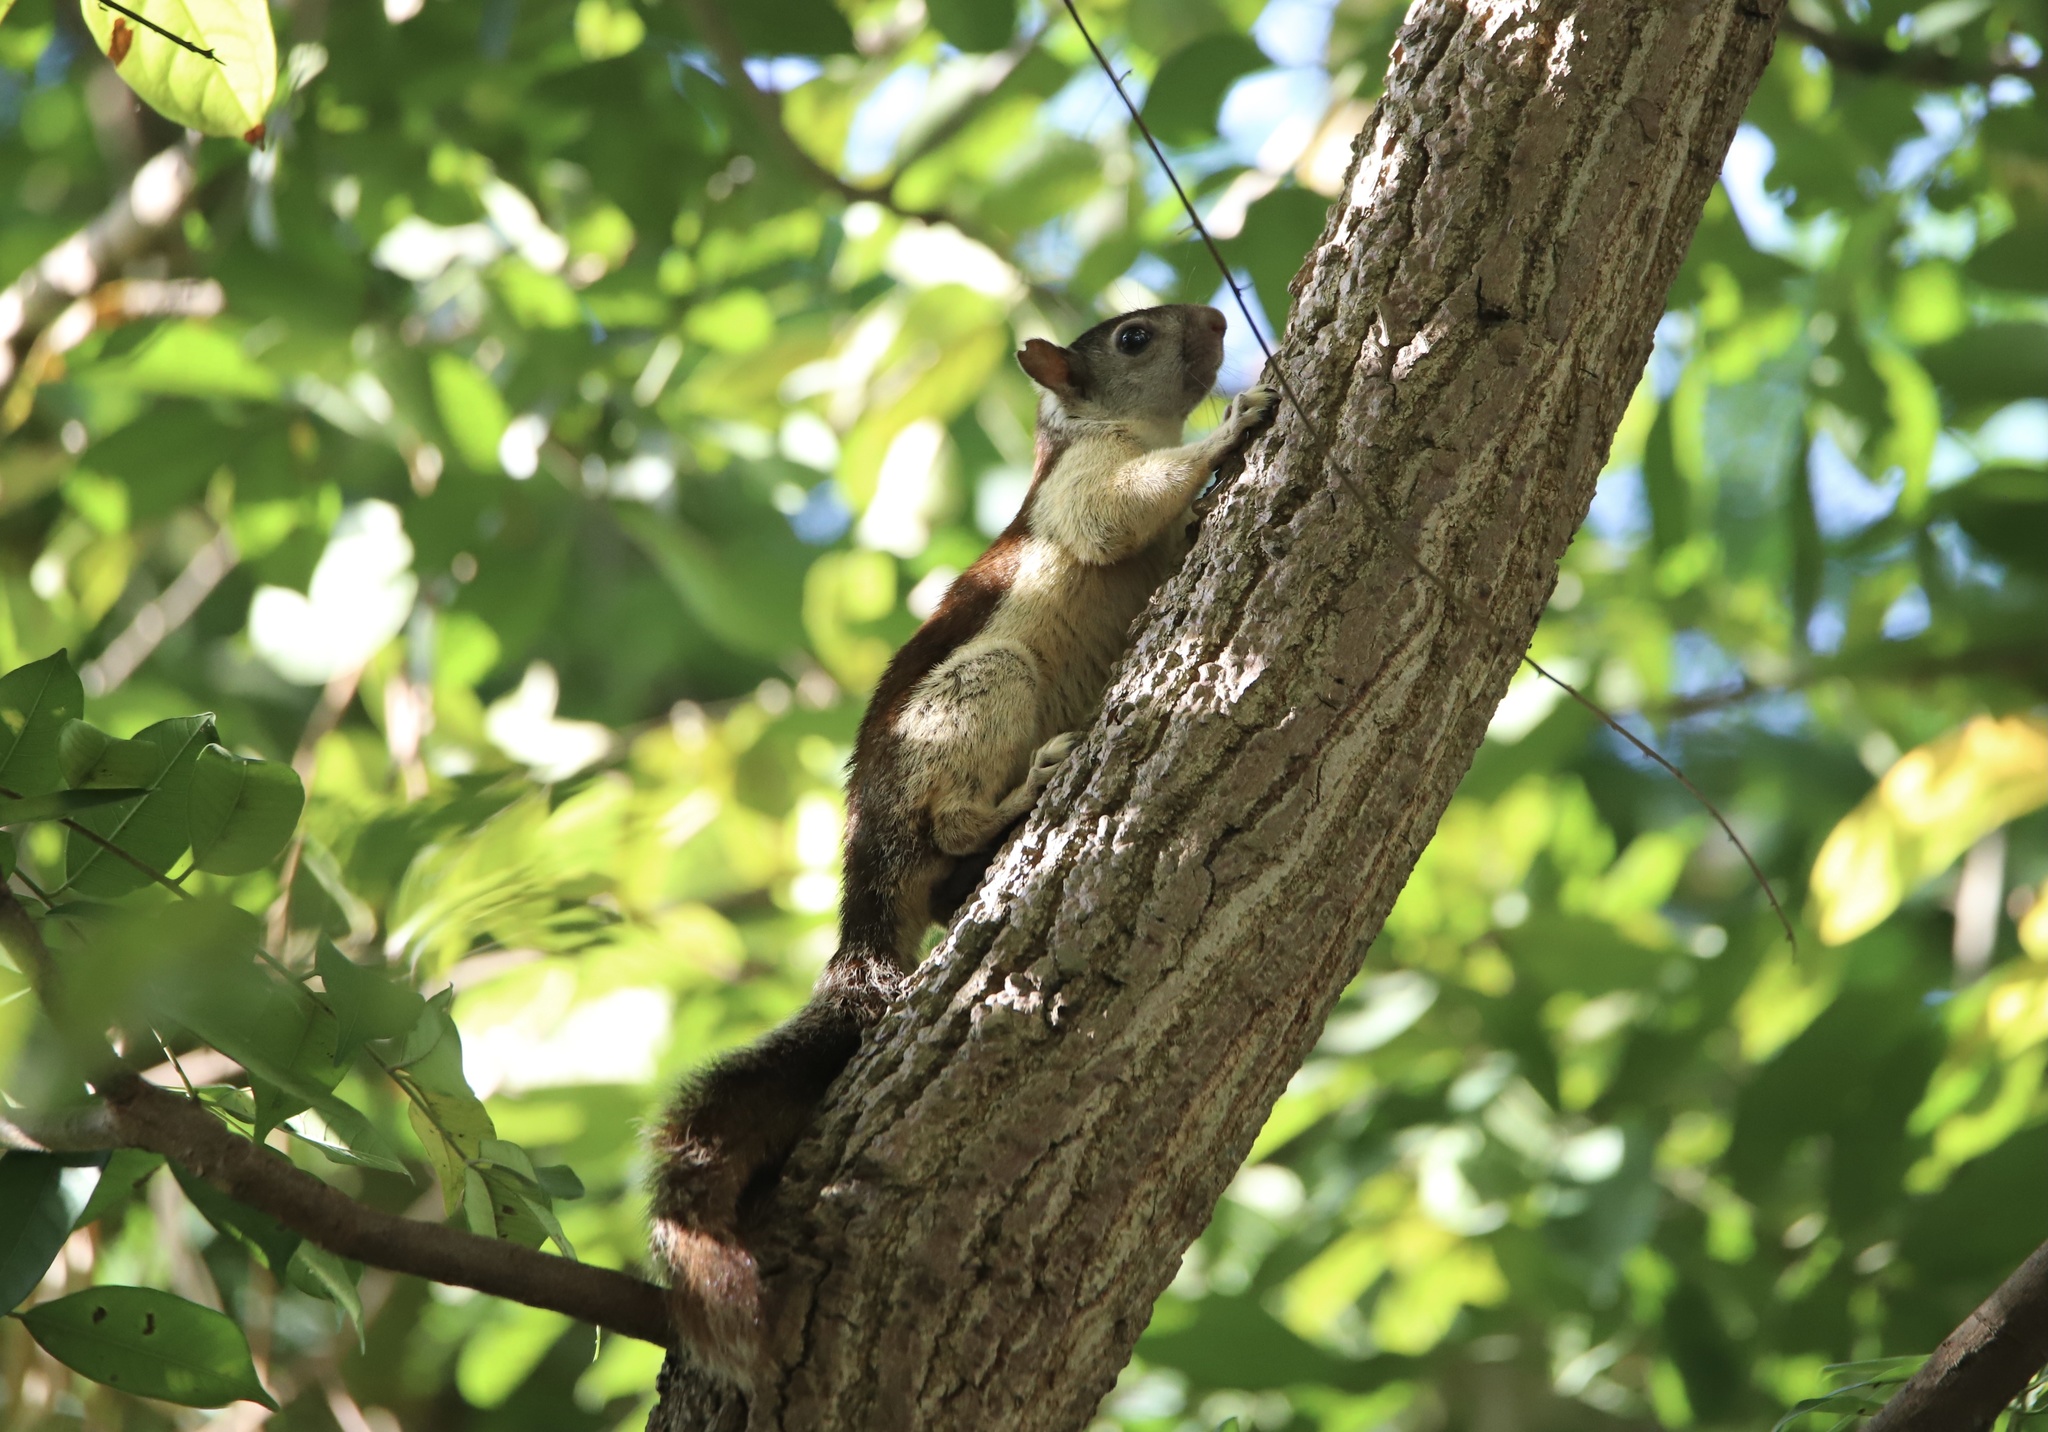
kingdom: Animalia
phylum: Chordata
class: Mammalia
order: Rodentia
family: Sciuridae
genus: Sciurus
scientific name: Sciurus variegatoides
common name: Variegated squirrel
